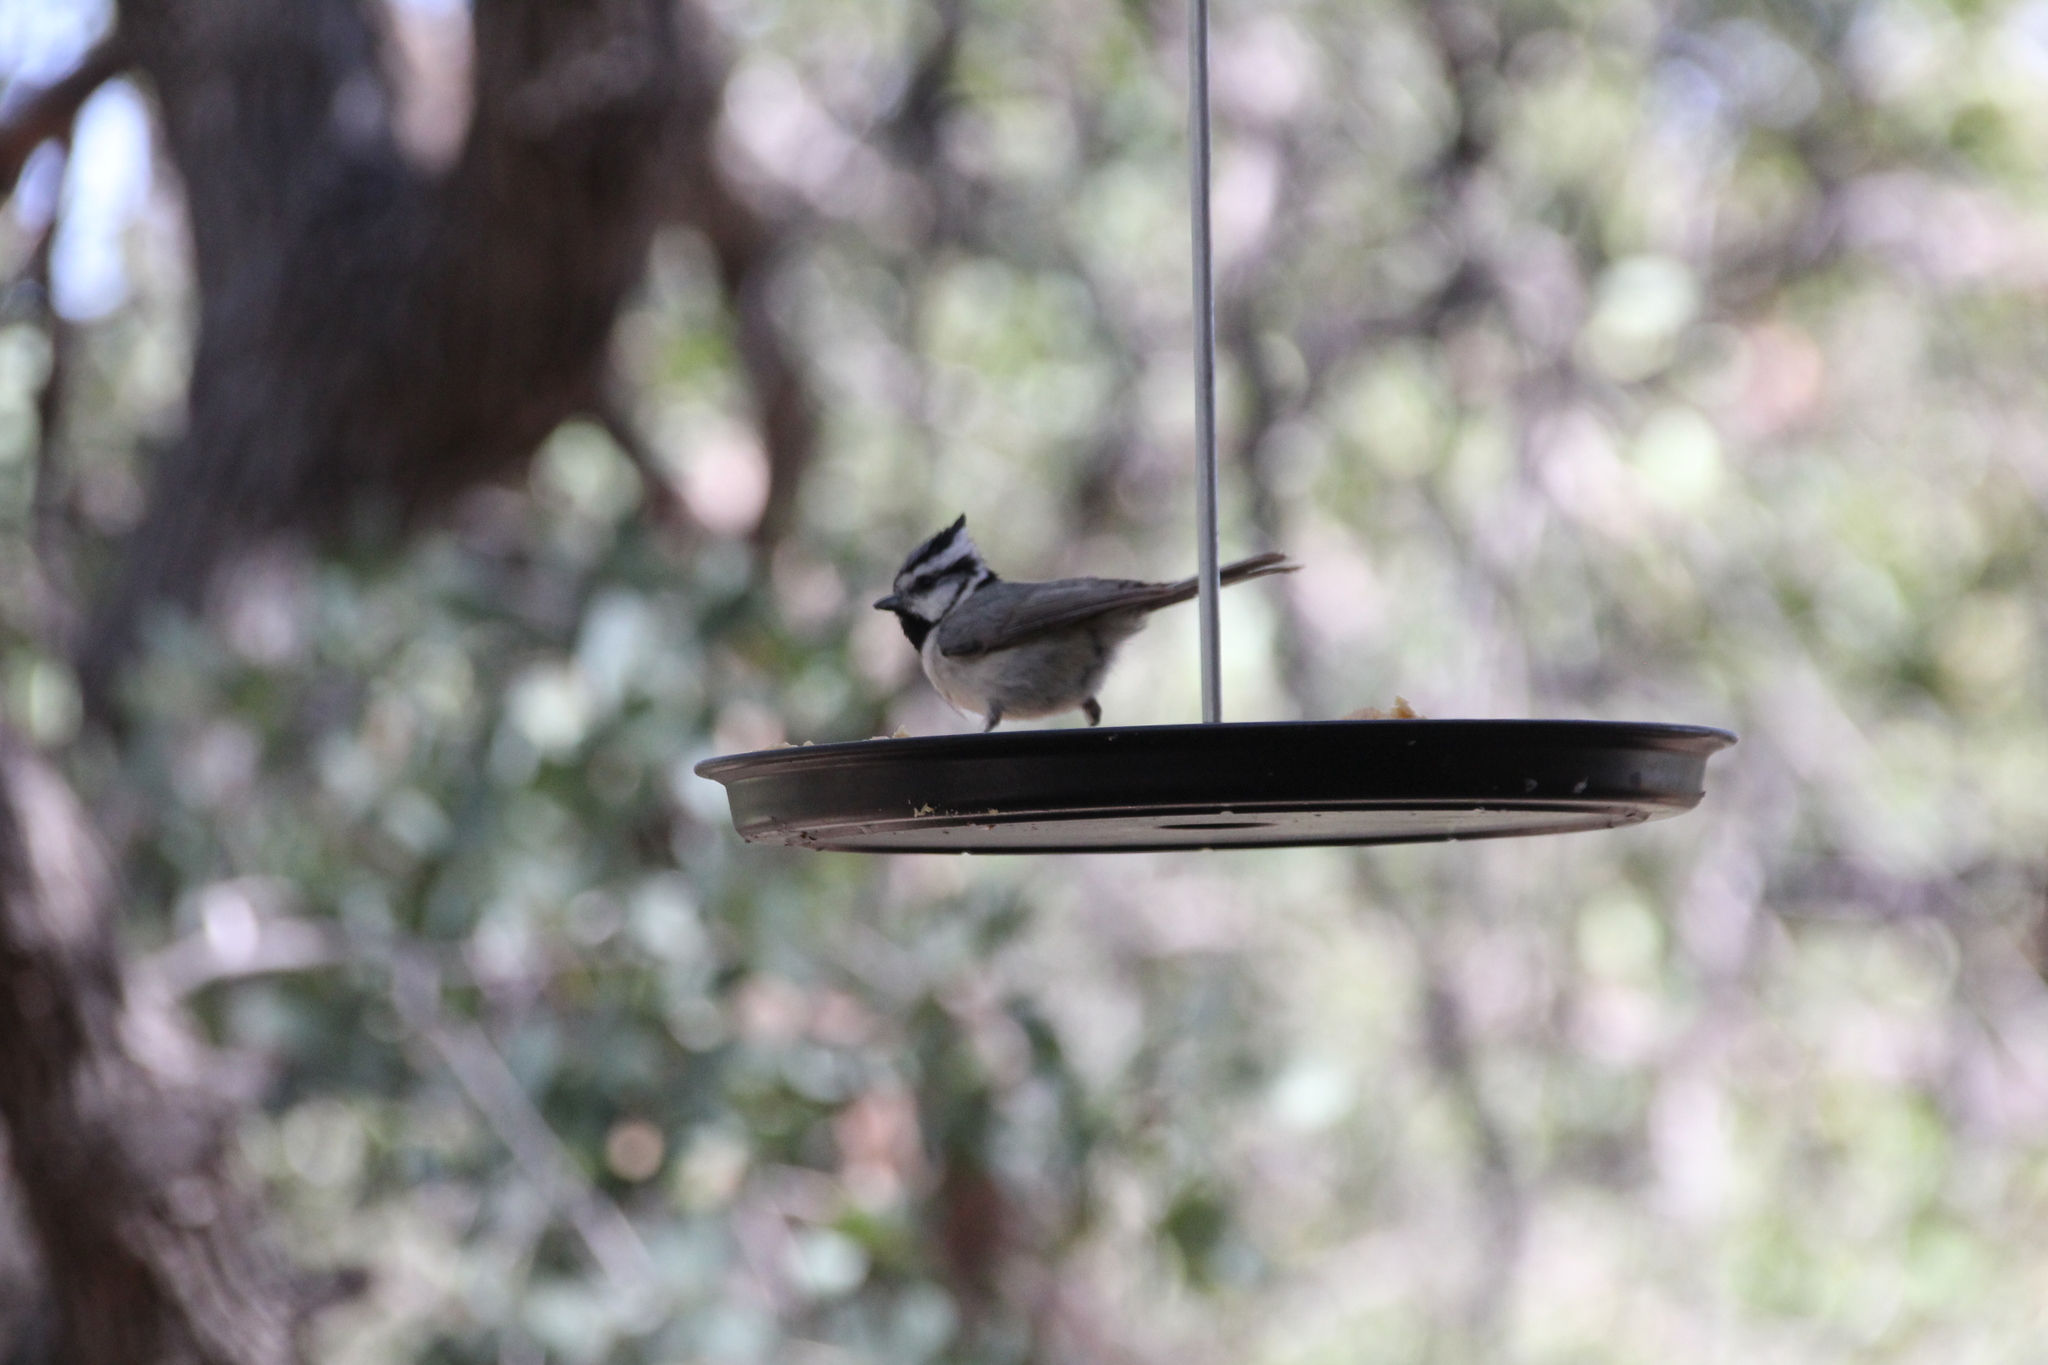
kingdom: Animalia
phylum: Chordata
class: Aves
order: Passeriformes
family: Paridae
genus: Baeolophus
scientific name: Baeolophus wollweberi
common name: Bridled titmouse
